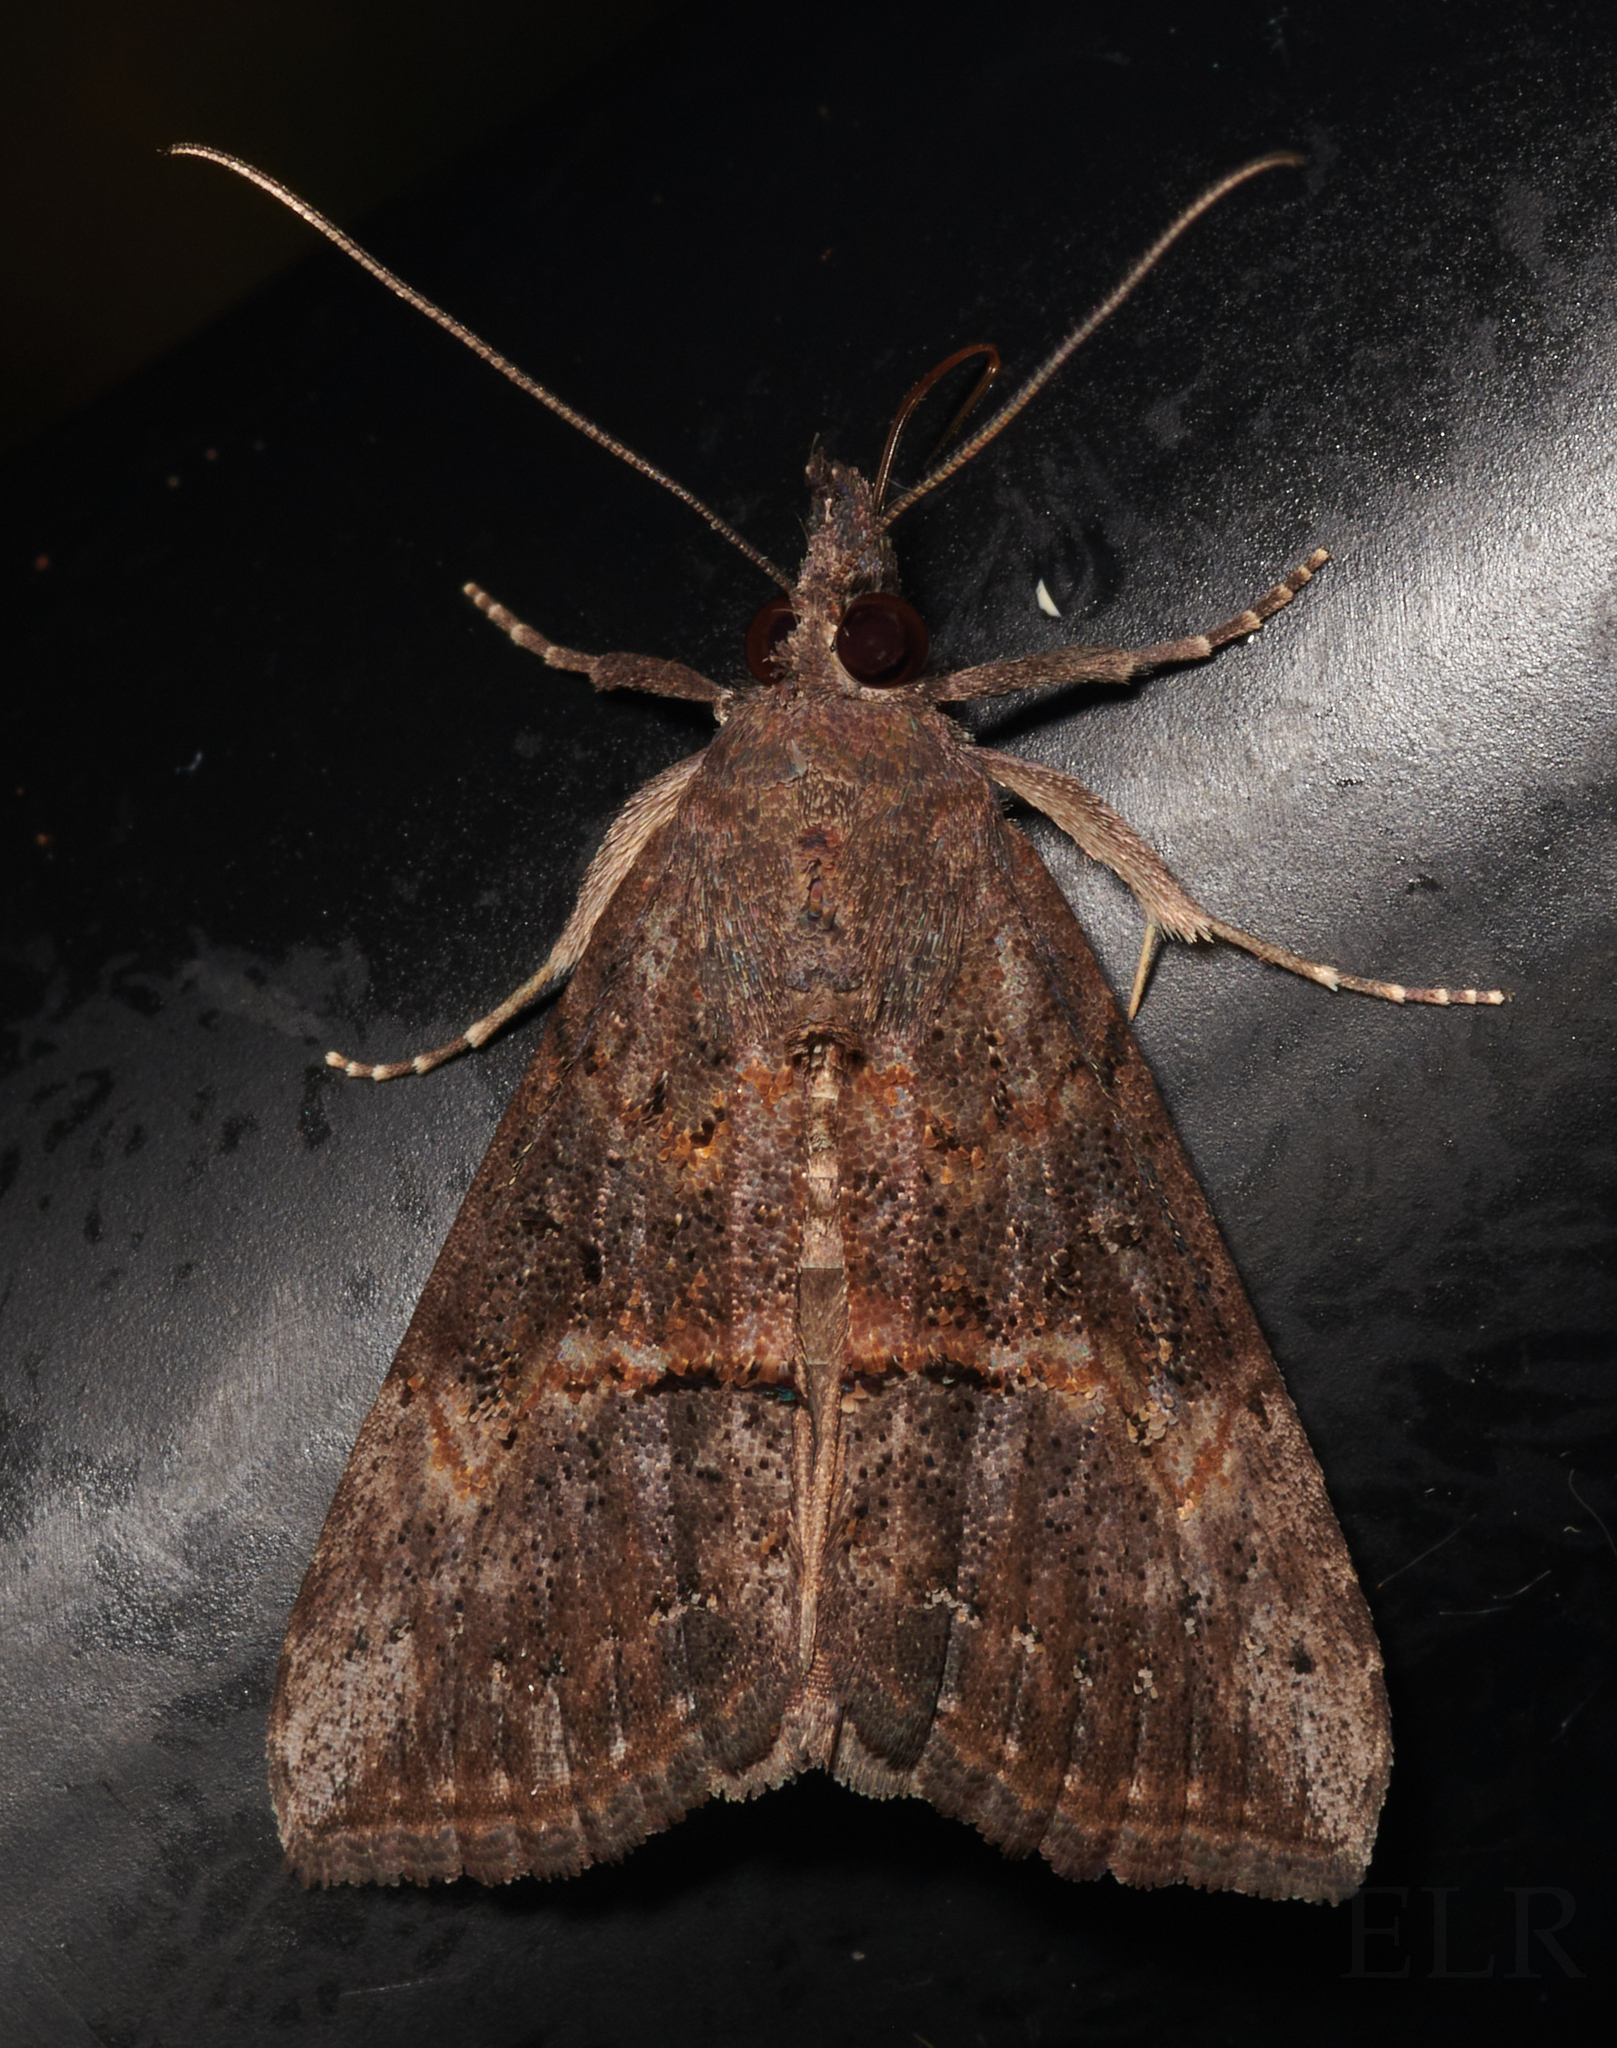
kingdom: Animalia
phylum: Arthropoda
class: Insecta
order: Lepidoptera
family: Erebidae
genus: Hypena
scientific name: Hypena scabra
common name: Green cloverworm
